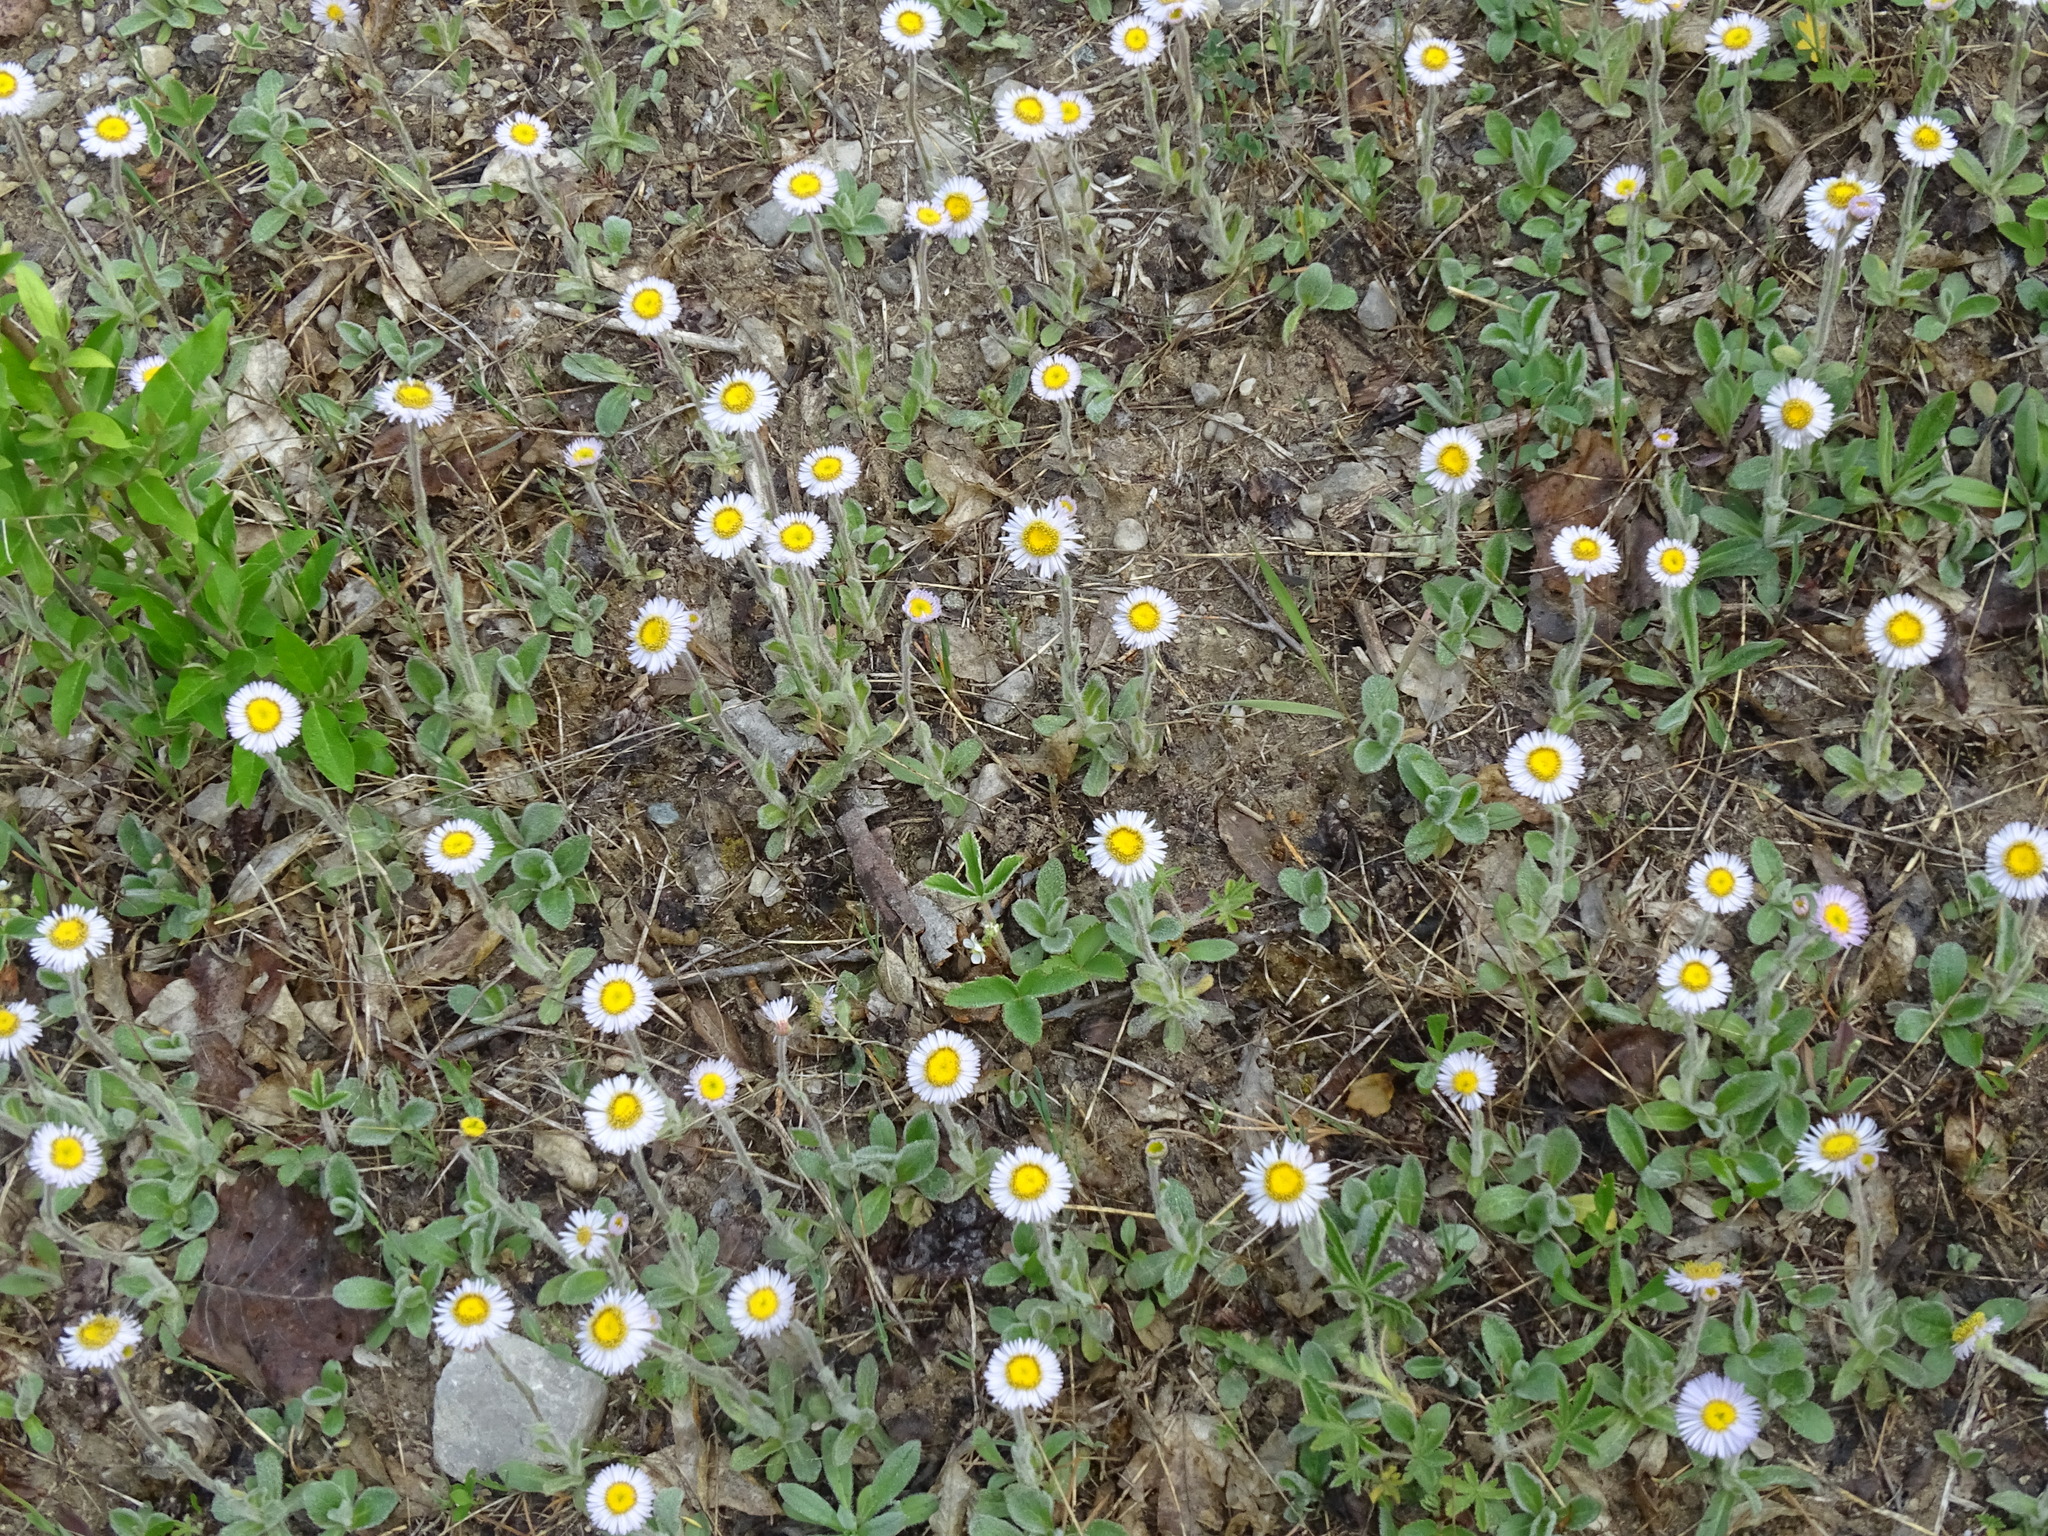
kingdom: Plantae
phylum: Tracheophyta
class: Magnoliopsida
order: Asterales
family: Asteraceae
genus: Erigeron
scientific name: Erigeron pulchellus
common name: Hairy fleabane
